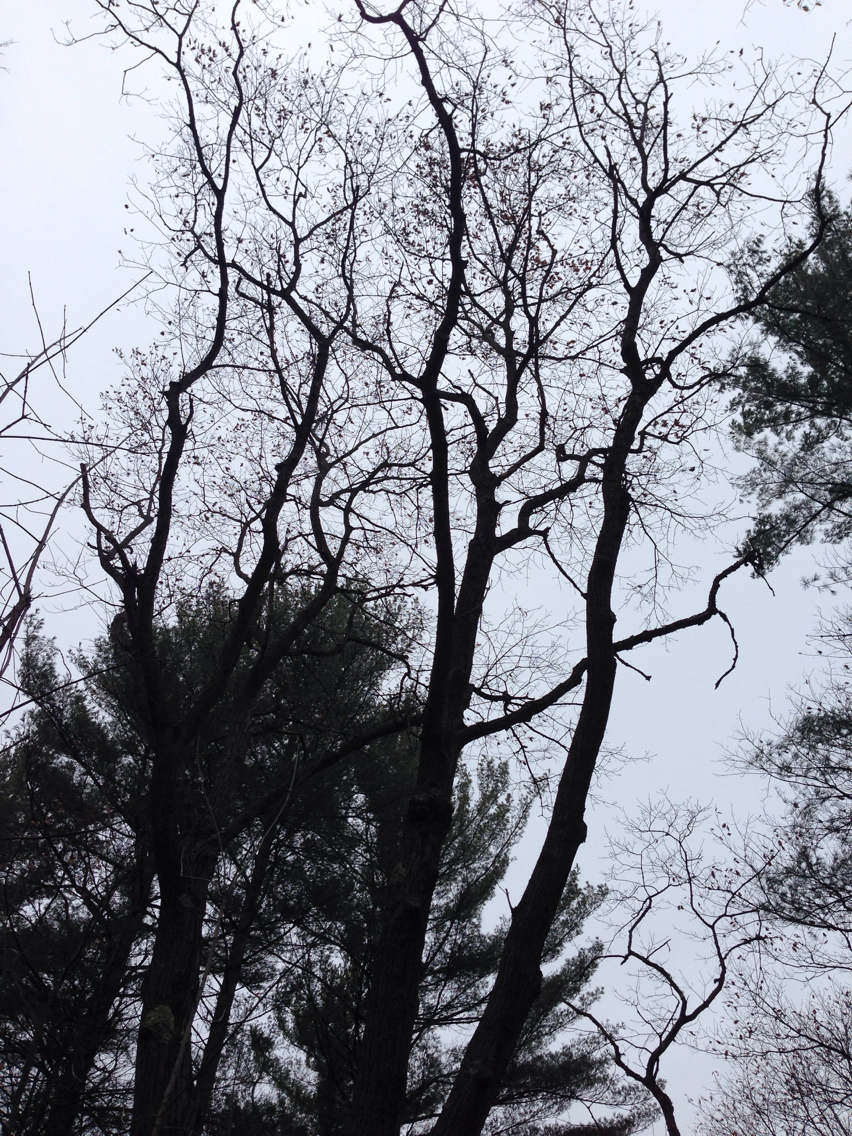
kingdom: Plantae
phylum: Tracheophyta
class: Magnoliopsida
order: Fagales
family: Fagaceae
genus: Quercus
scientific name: Quercus rubra
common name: Red oak
